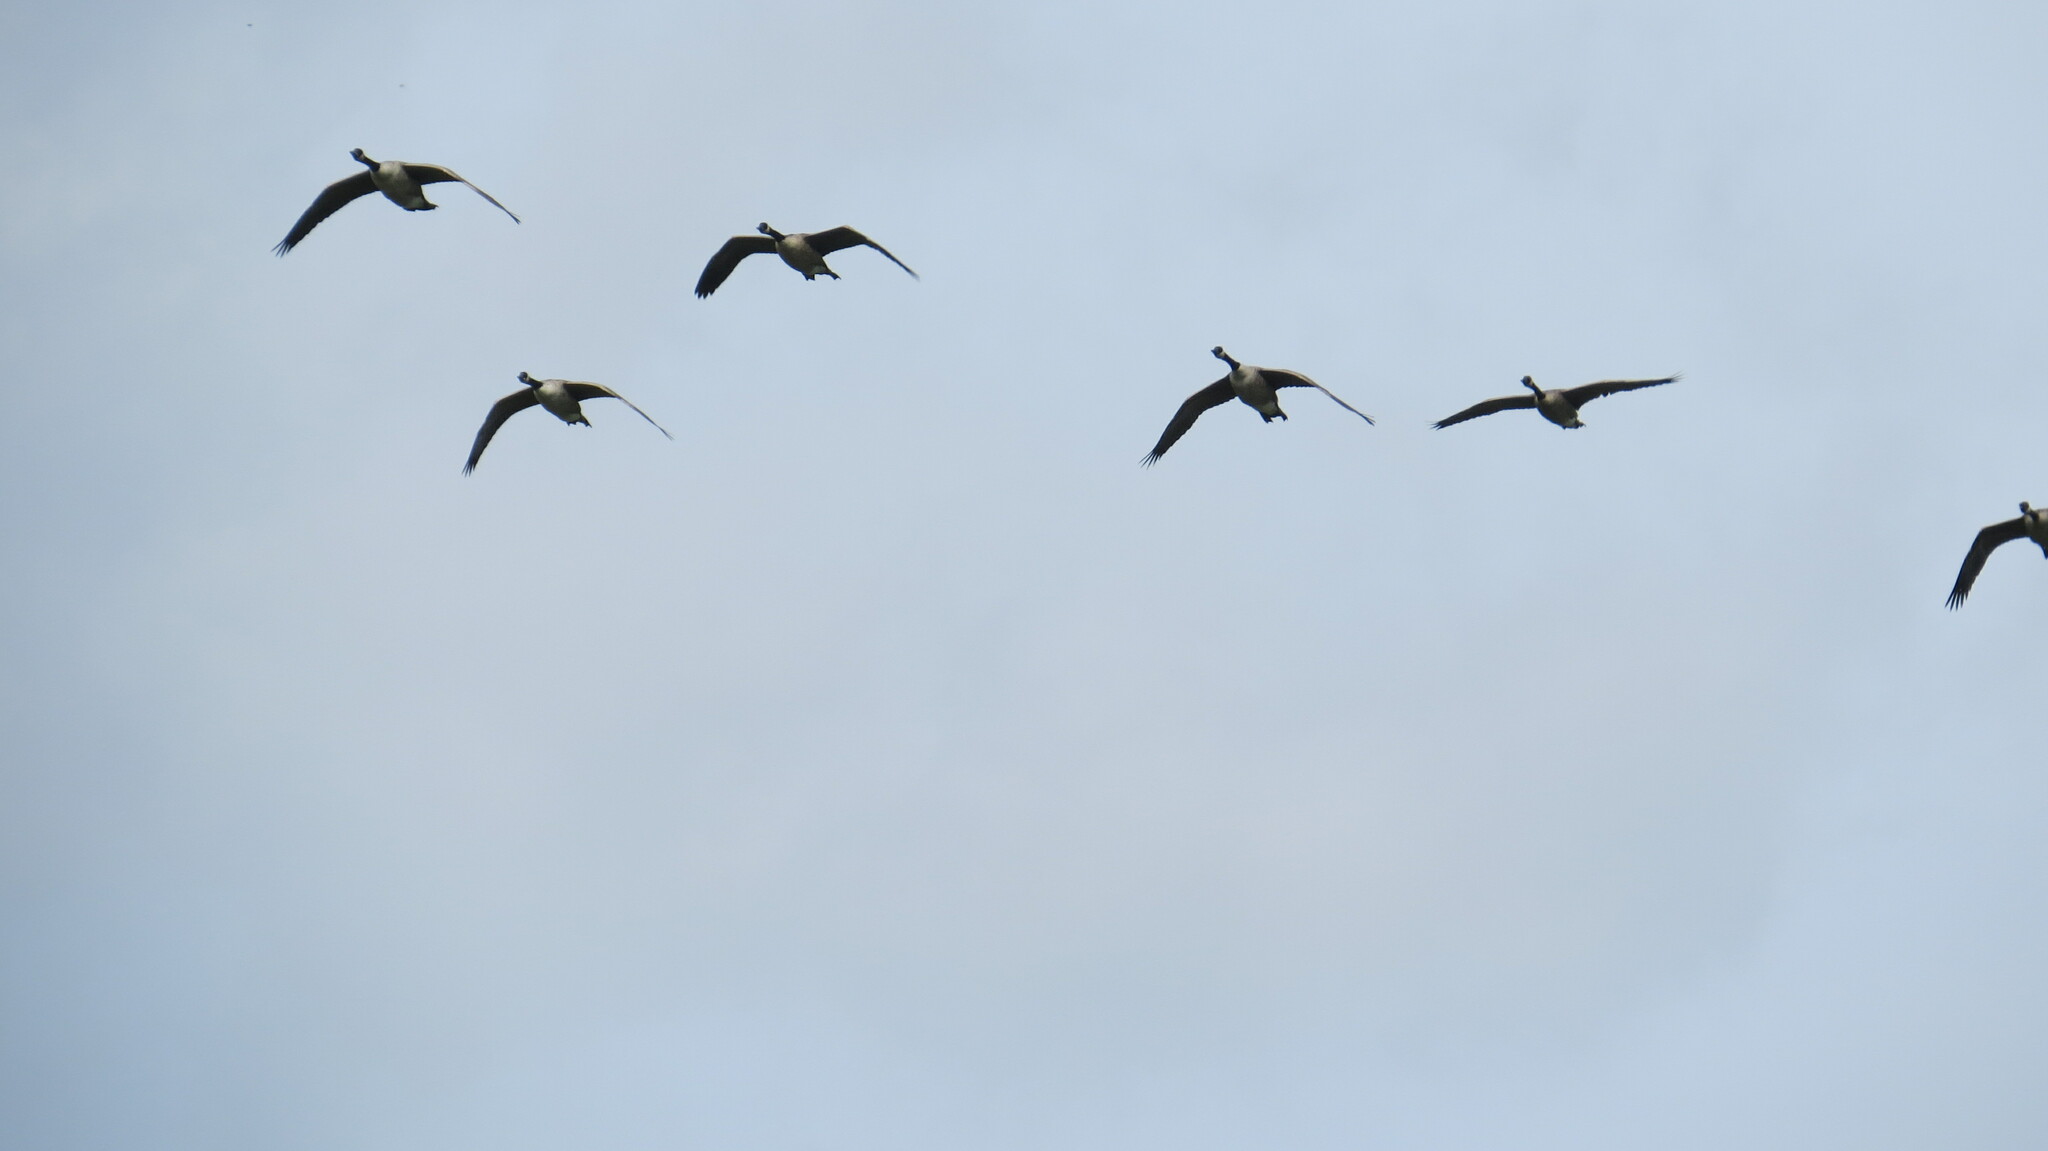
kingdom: Animalia
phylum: Chordata
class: Aves
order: Anseriformes
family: Anatidae
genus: Branta
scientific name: Branta canadensis
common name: Canada goose
